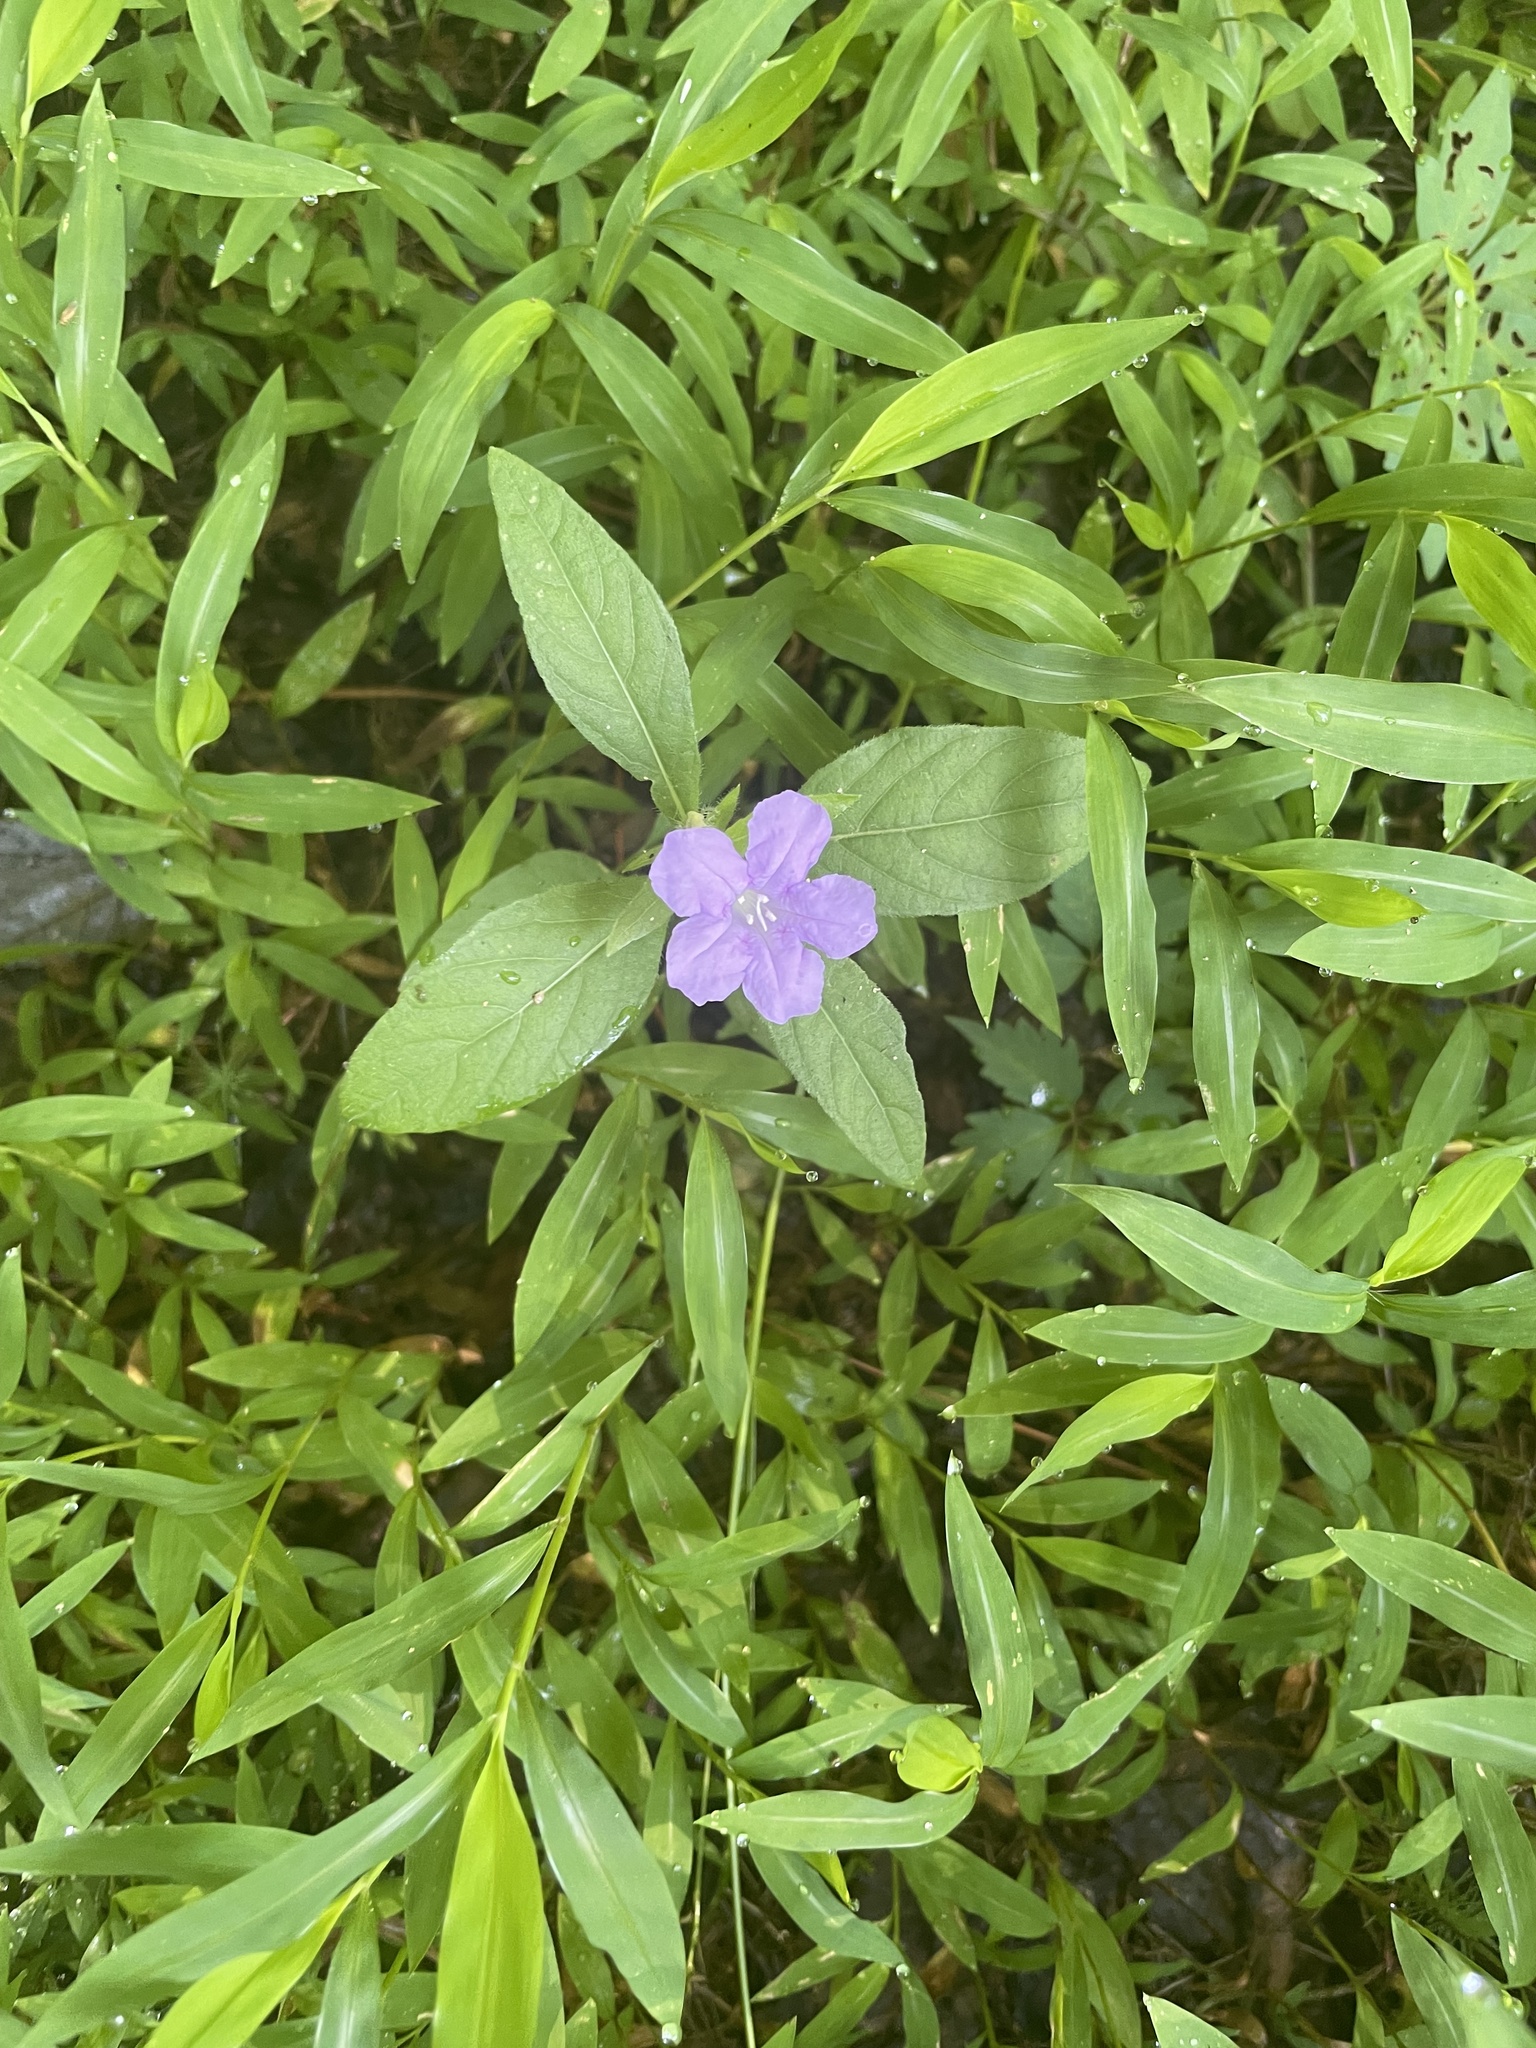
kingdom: Plantae
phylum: Tracheophyta
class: Magnoliopsida
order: Lamiales
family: Acanthaceae
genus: Ruellia
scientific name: Ruellia caroliniensis
